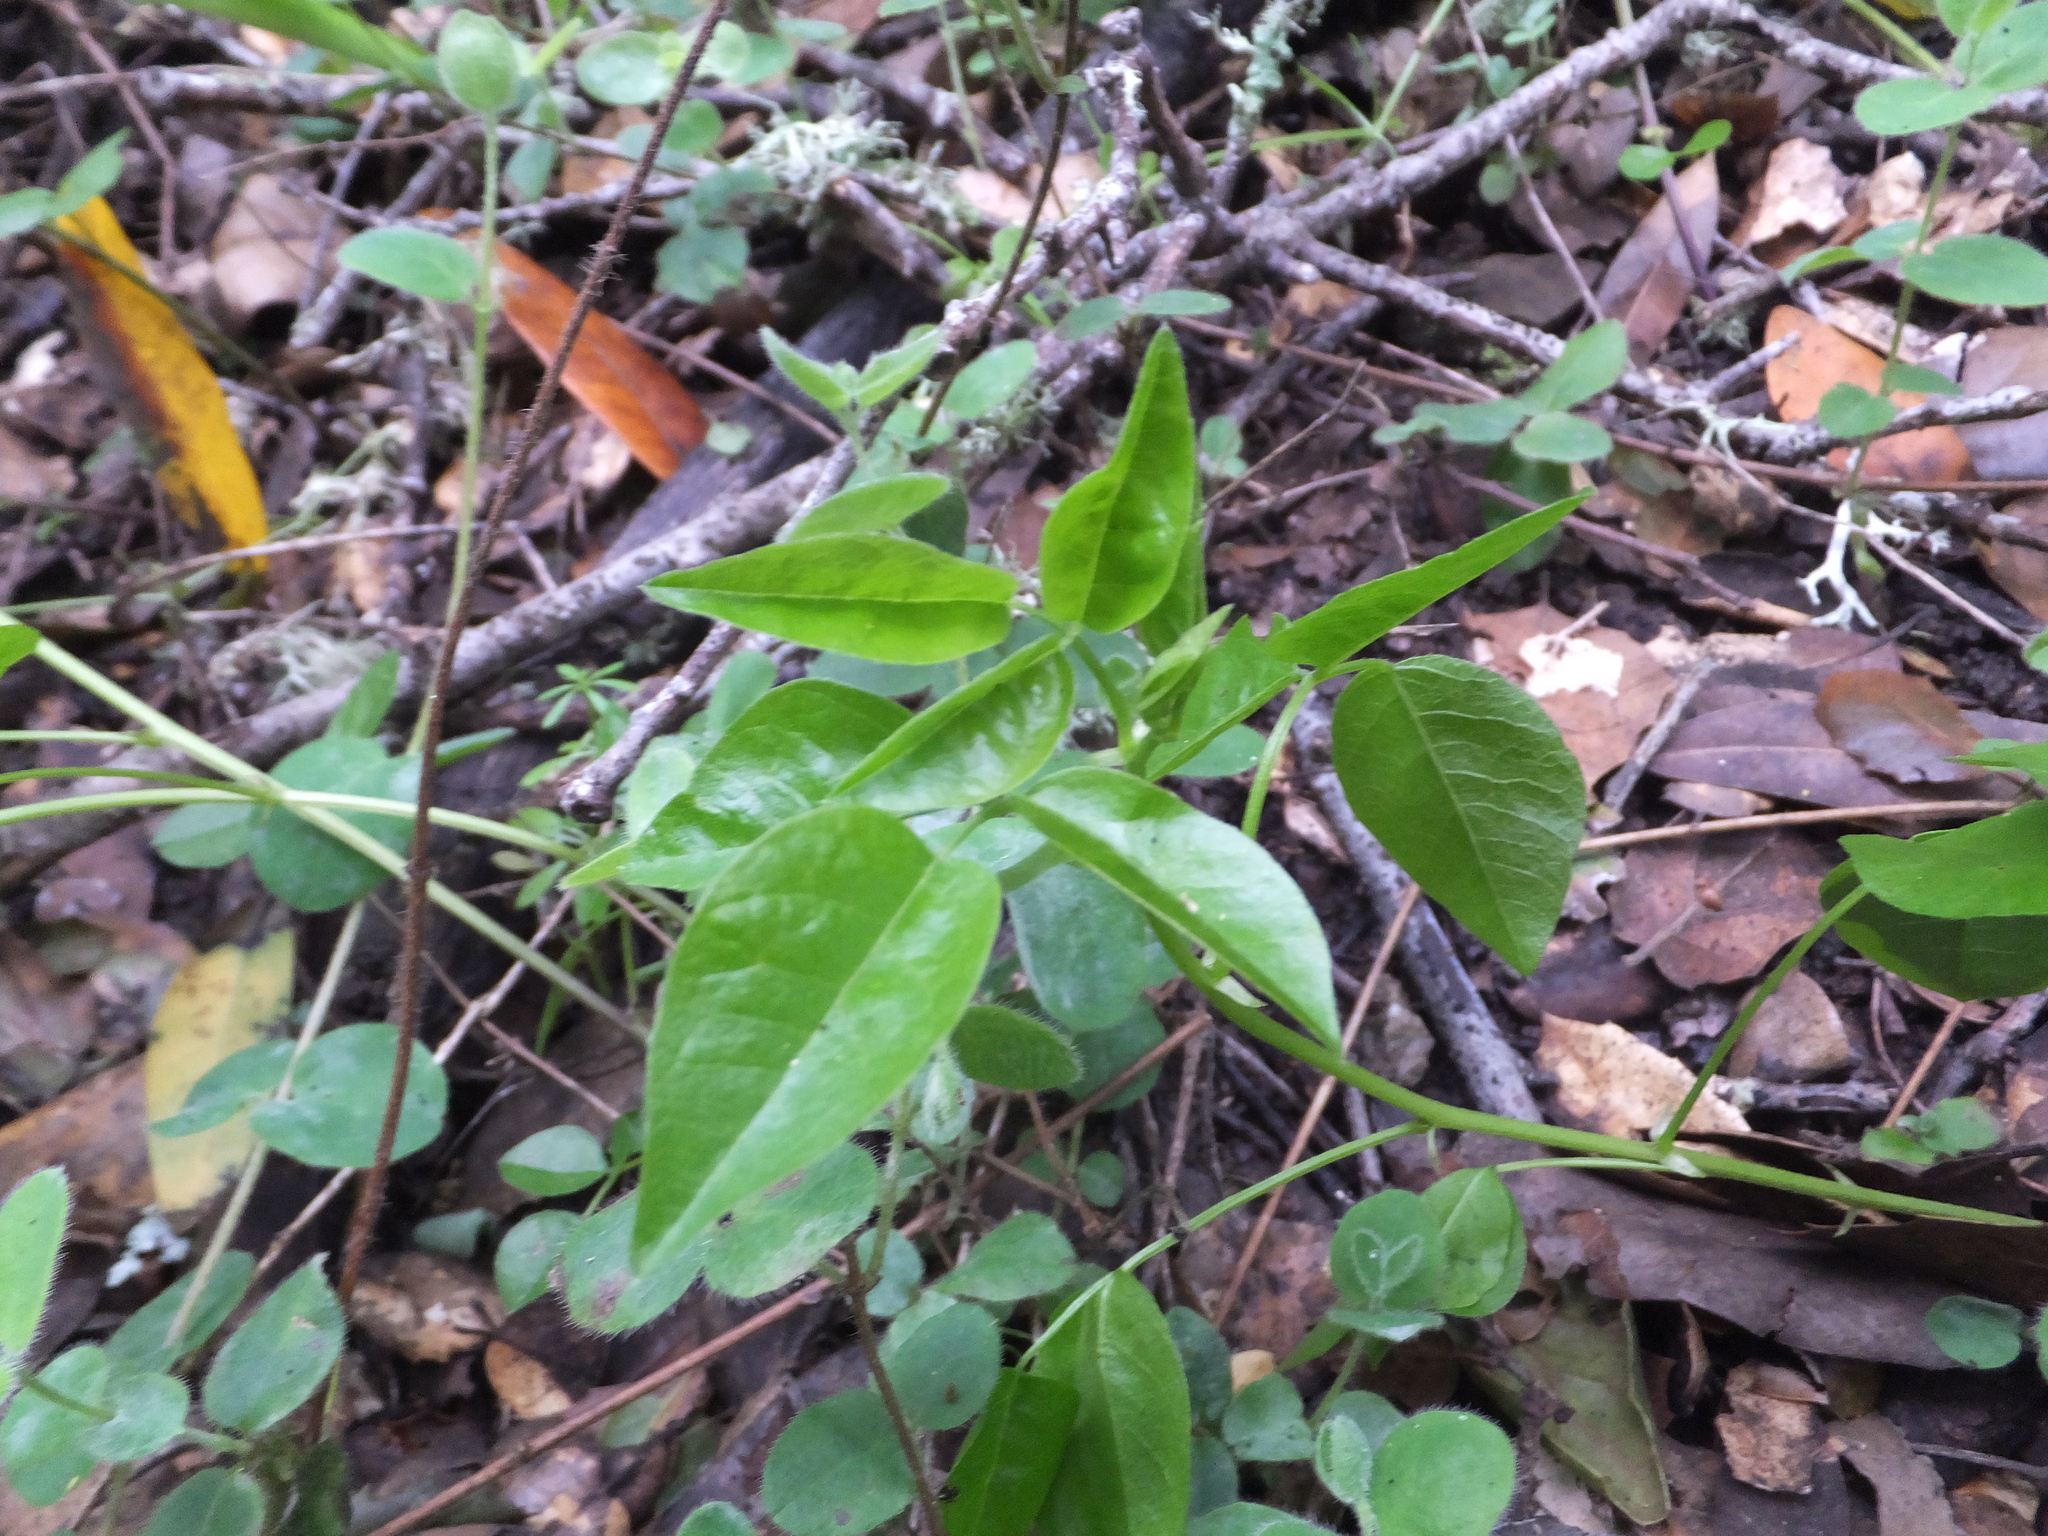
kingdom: Plantae
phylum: Tracheophyta
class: Magnoliopsida
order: Fabales
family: Fabaceae
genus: Rupertia
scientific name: Rupertia physodes
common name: California-tea
